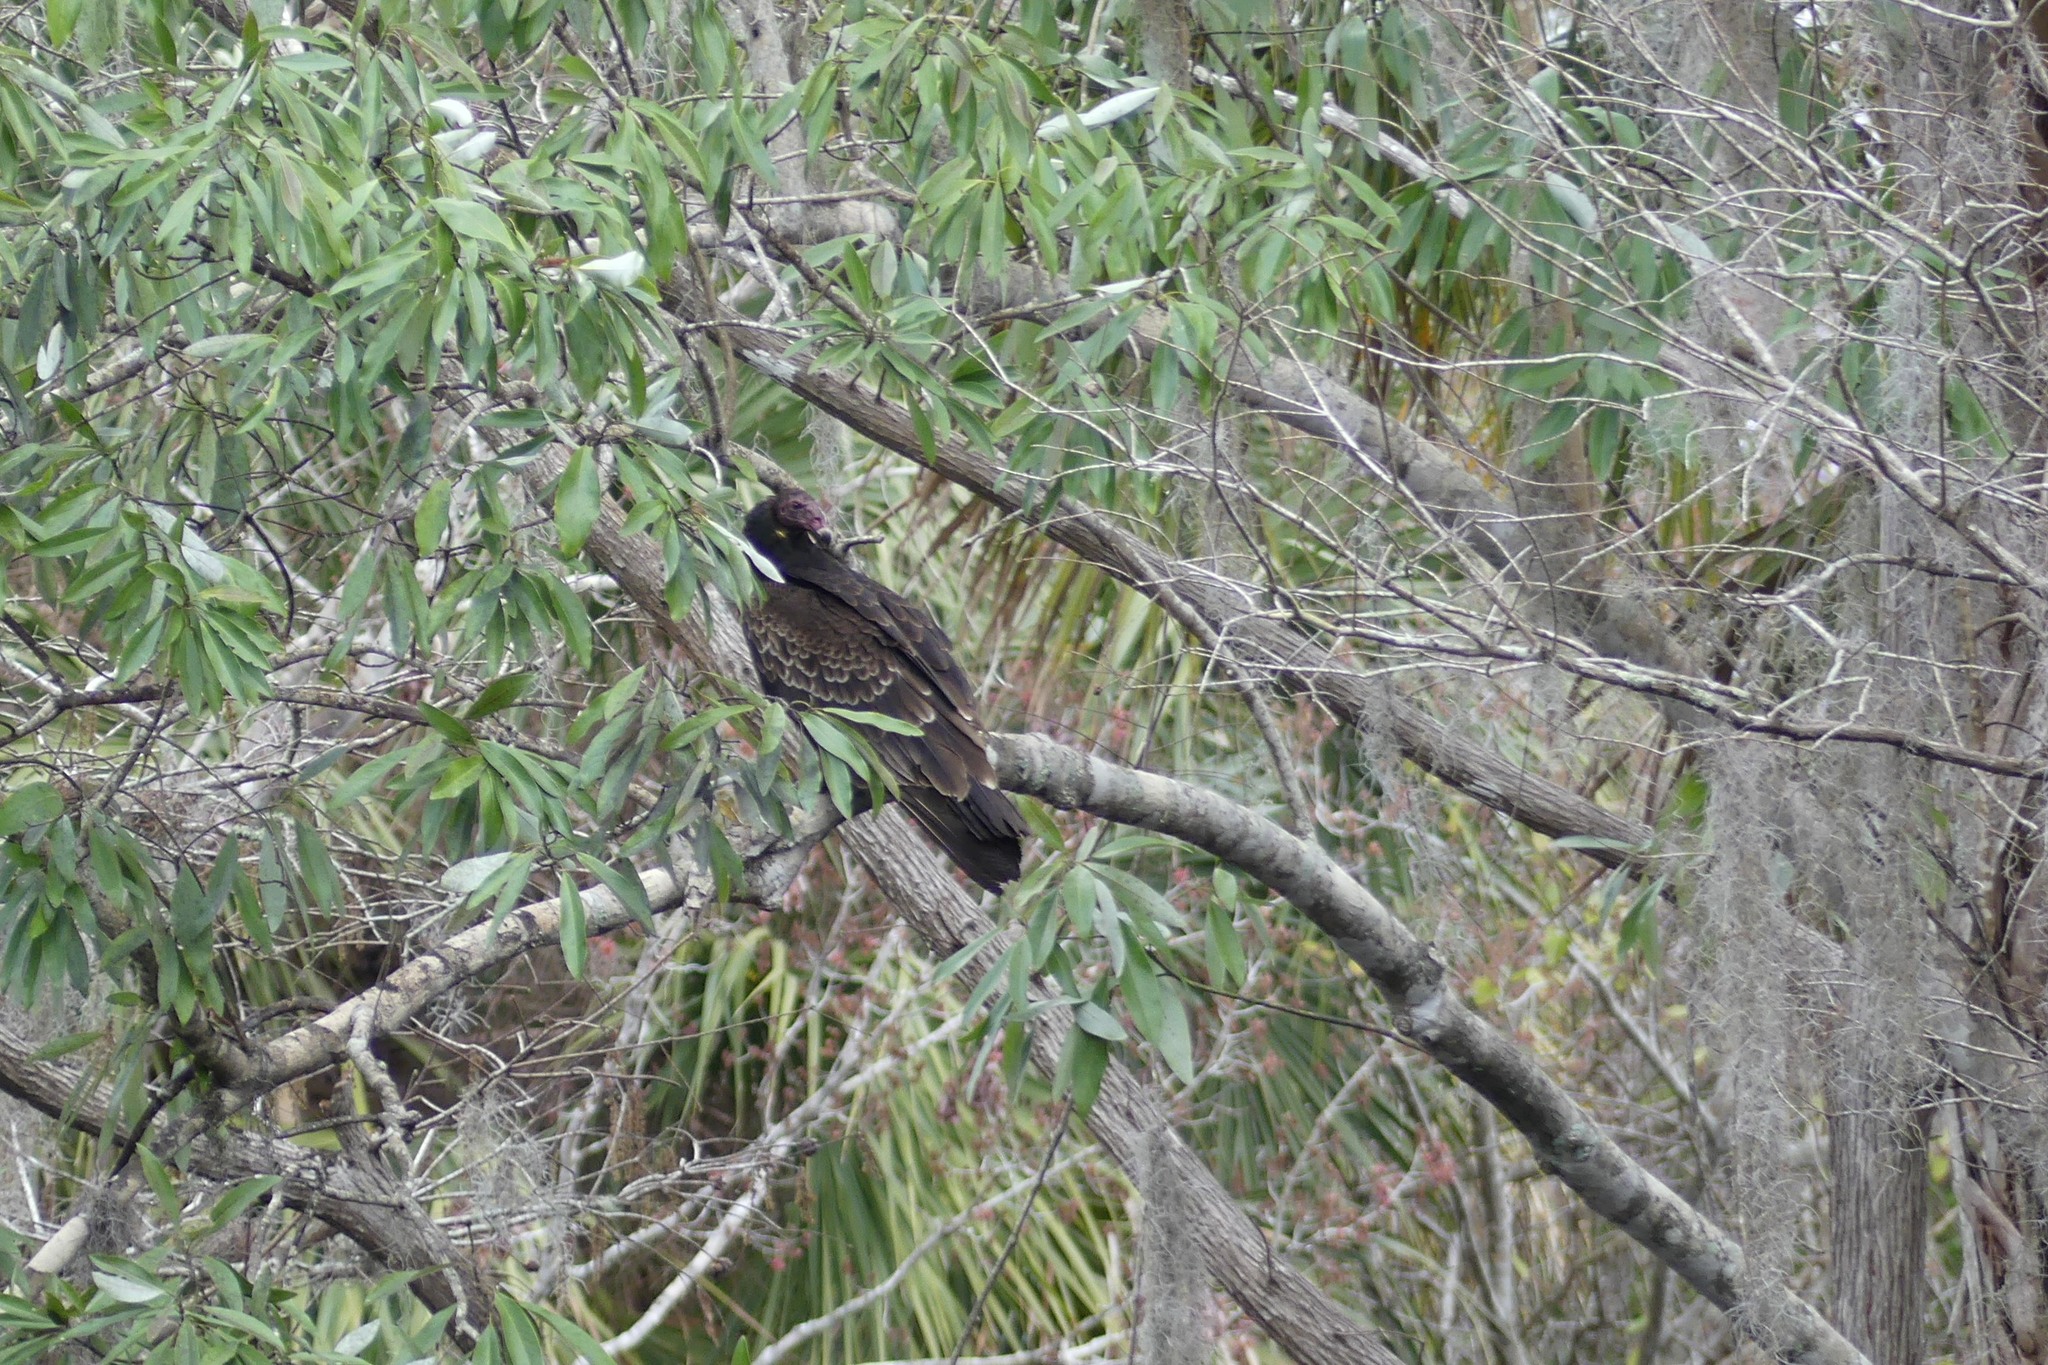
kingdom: Animalia
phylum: Chordata
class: Aves
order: Accipitriformes
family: Cathartidae
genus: Cathartes
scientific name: Cathartes aura
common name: Turkey vulture
